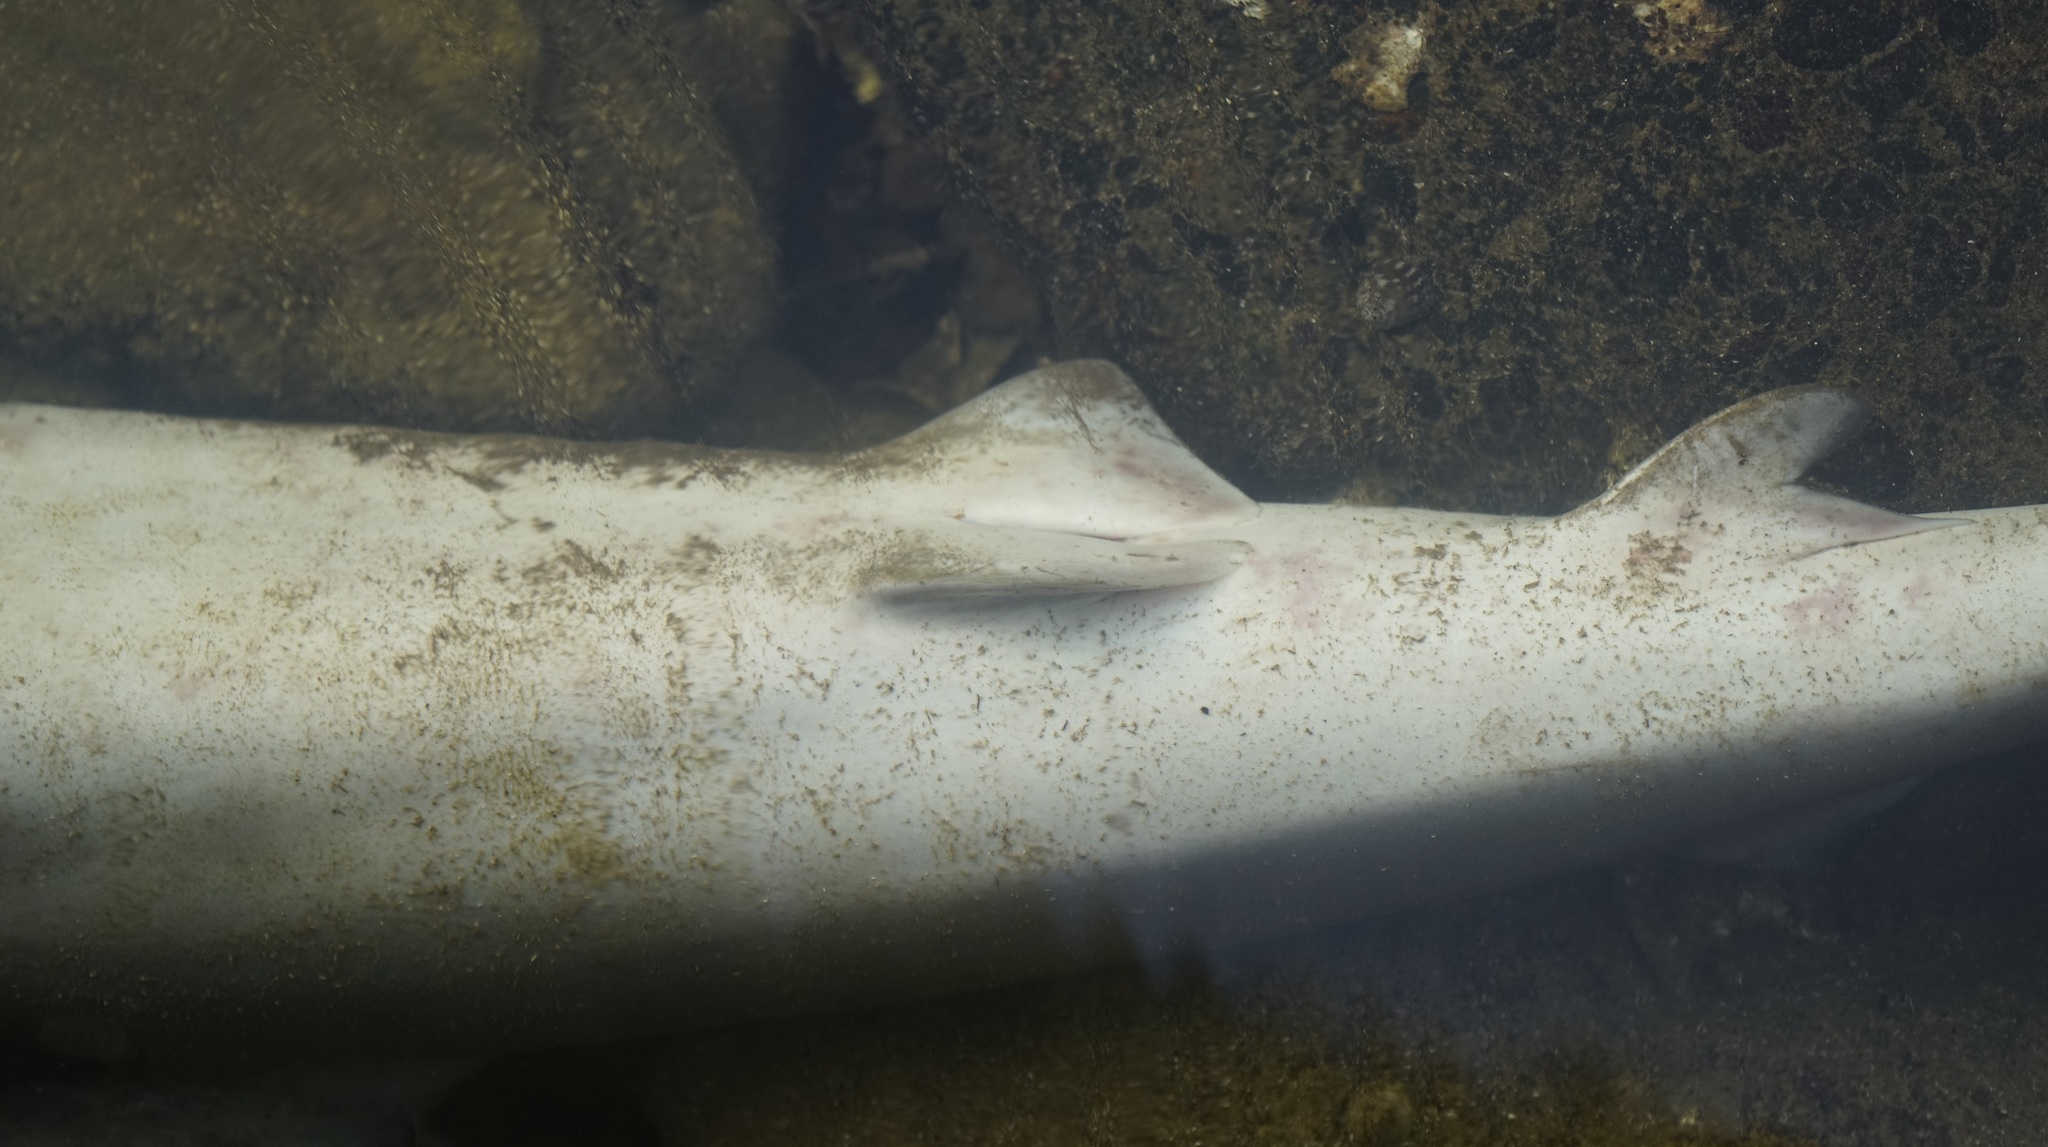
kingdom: Animalia
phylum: Chordata
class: Elasmobranchii
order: Carcharhiniformes
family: Carcharhinidae
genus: Carcharhinus
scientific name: Carcharhinus obscurus
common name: Dusky shark
